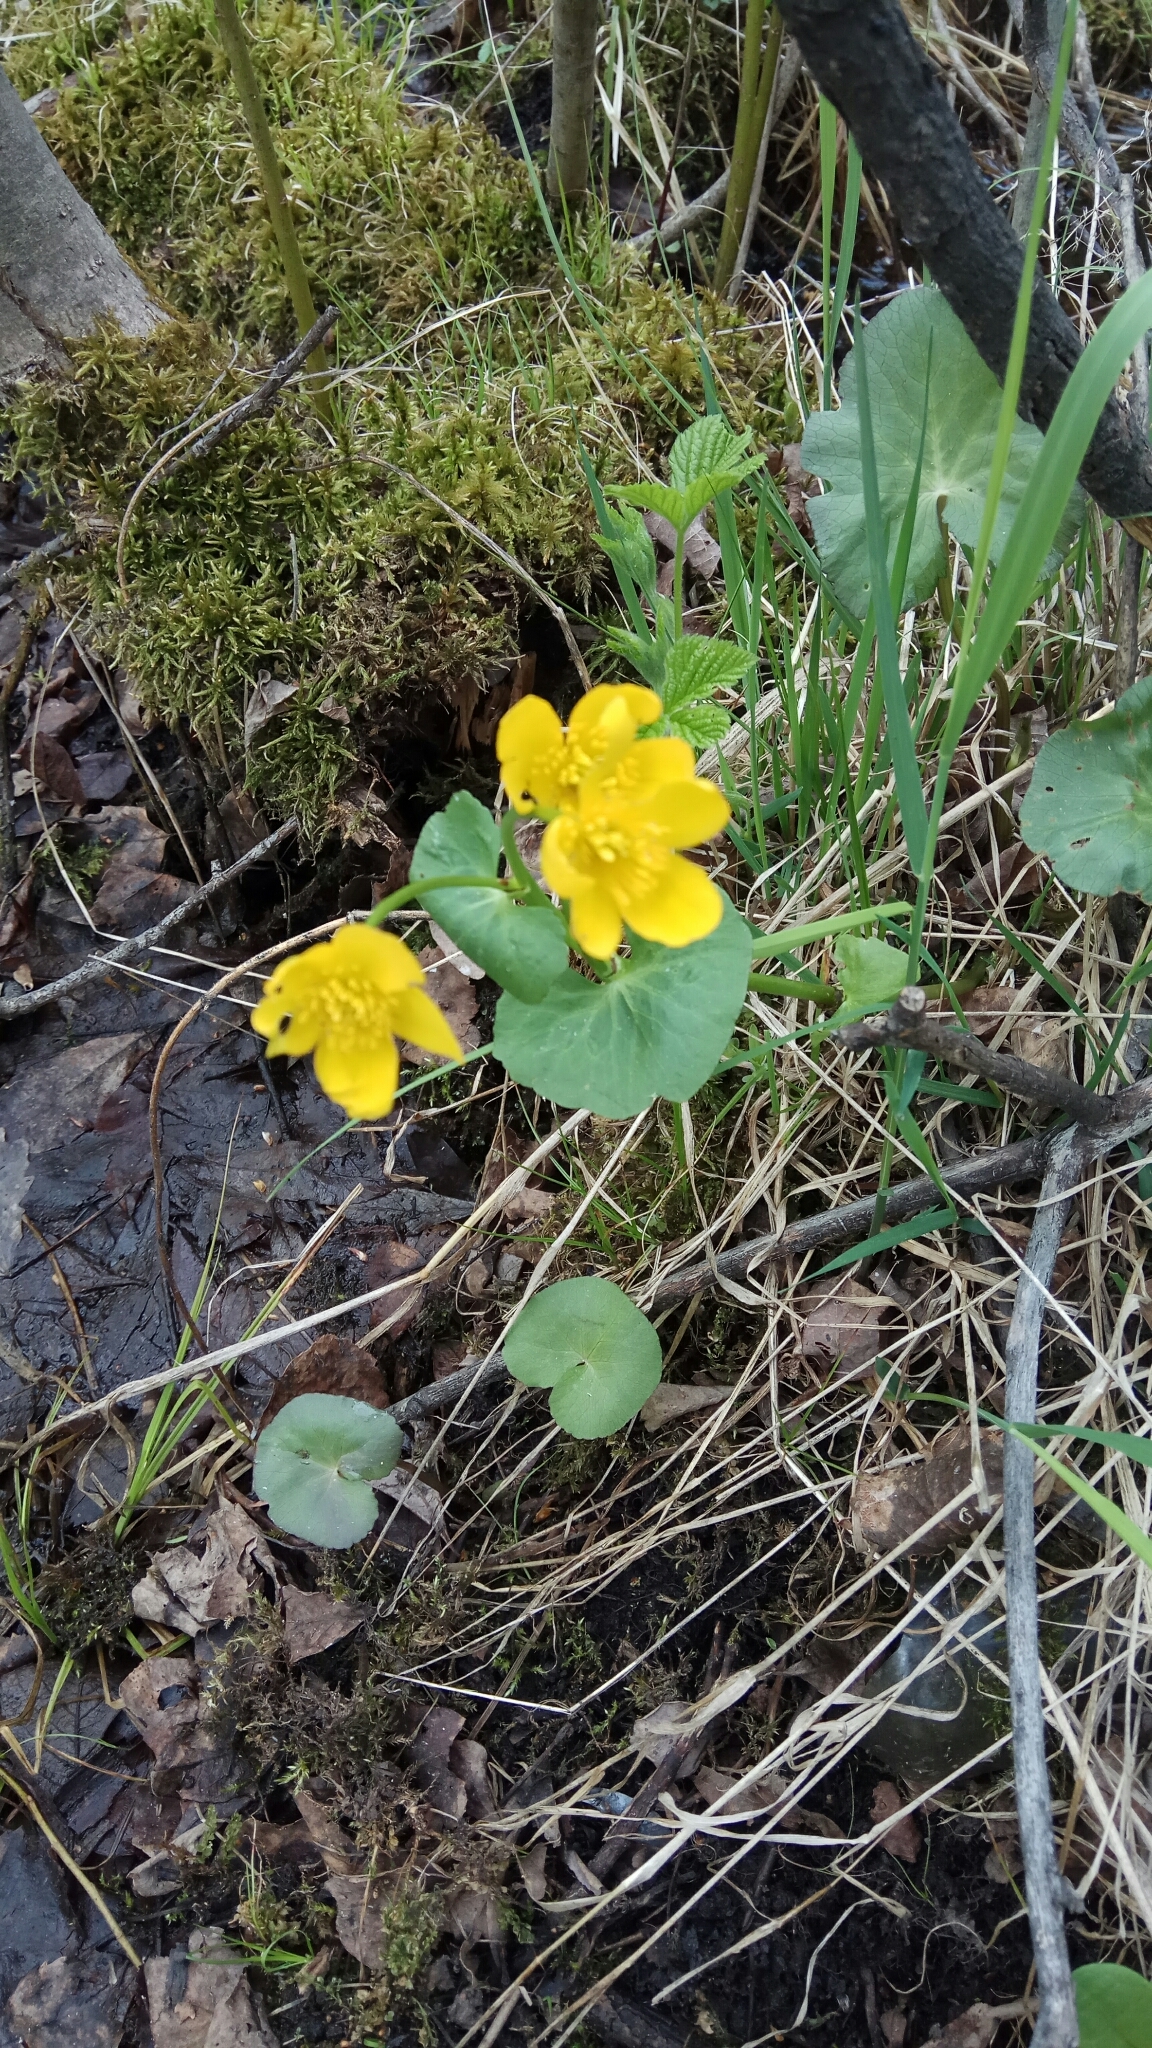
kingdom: Plantae
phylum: Tracheophyta
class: Magnoliopsida
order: Ranunculales
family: Ranunculaceae
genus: Caltha
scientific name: Caltha palustris
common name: Marsh marigold
